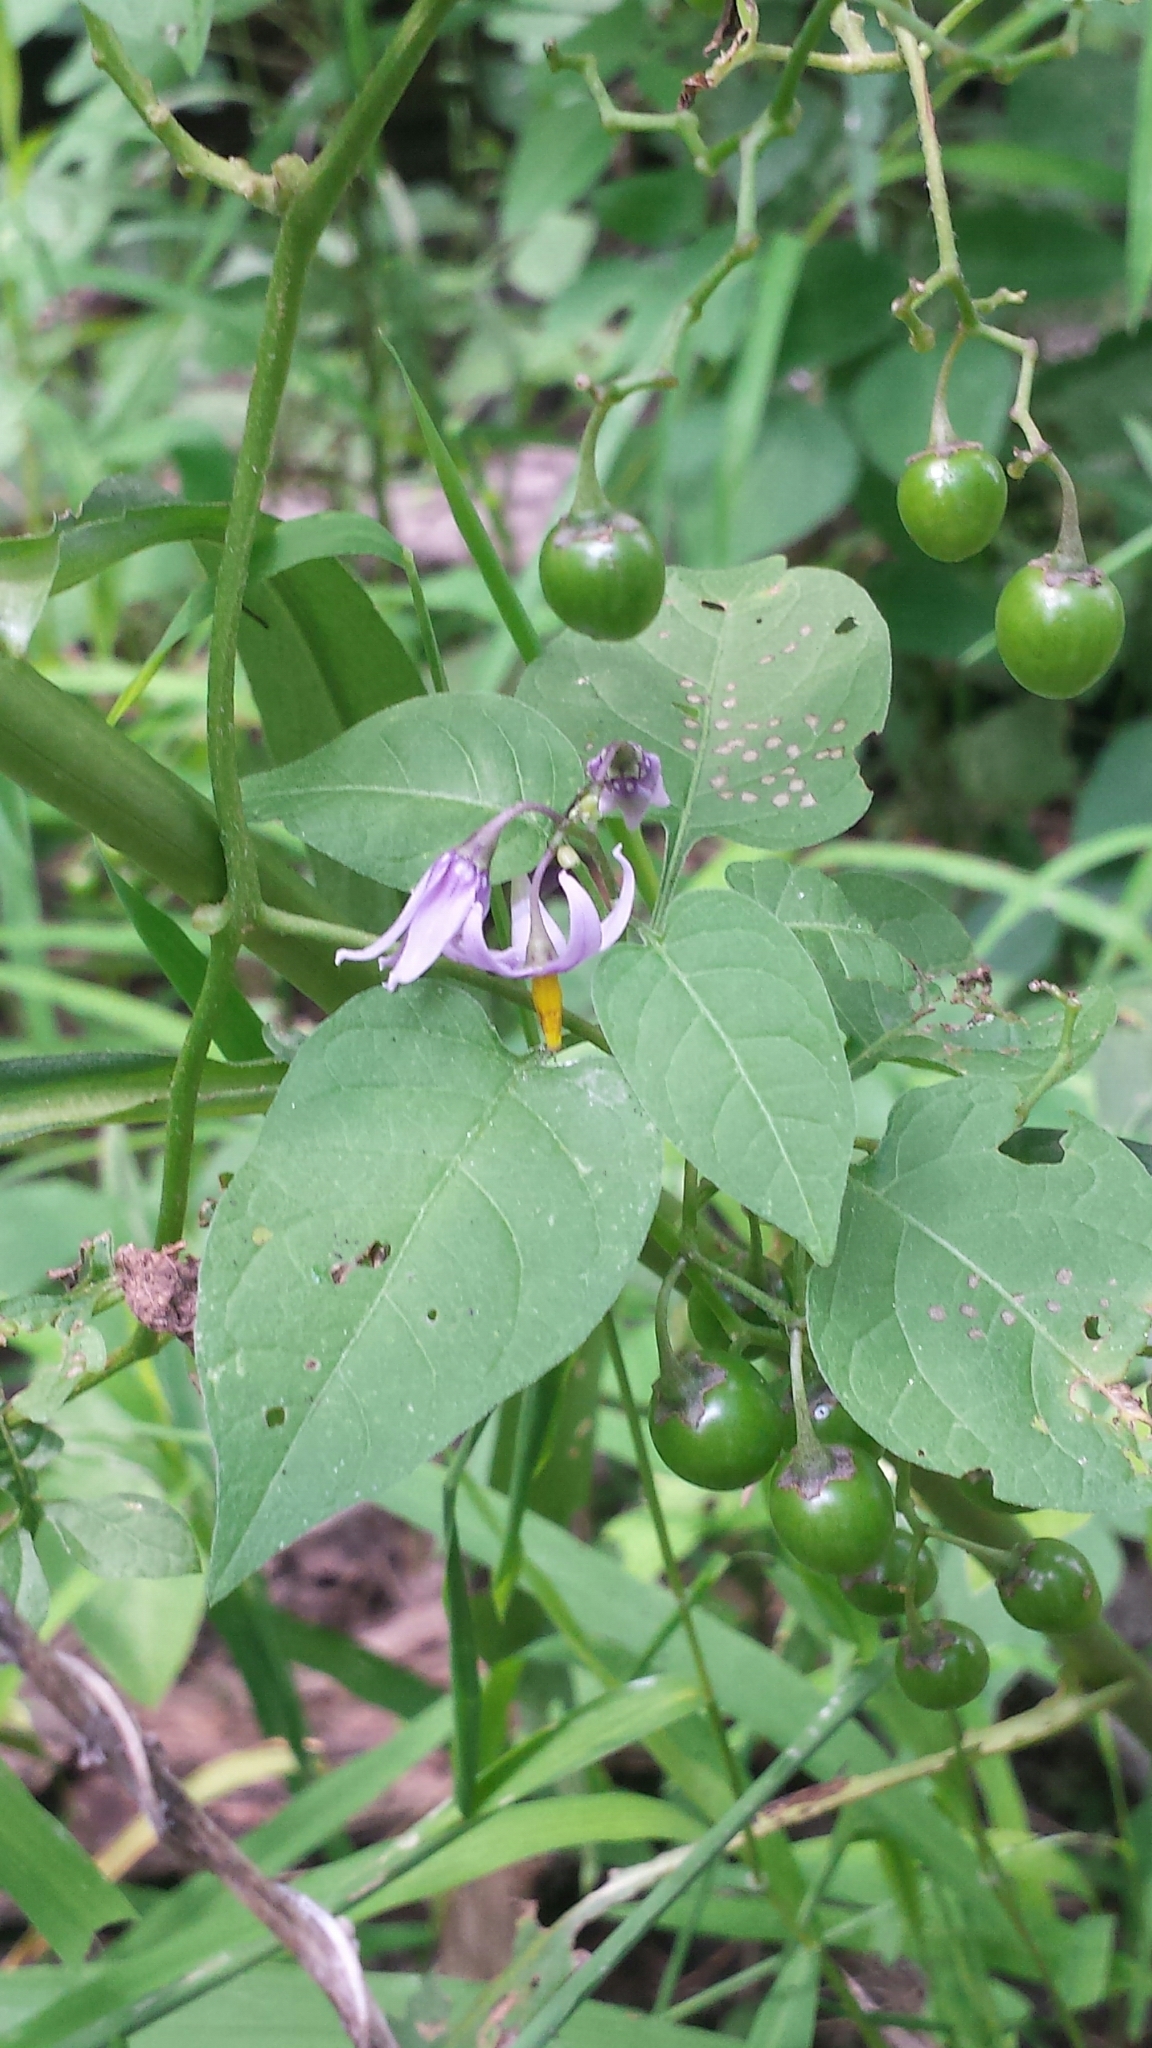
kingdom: Plantae
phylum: Tracheophyta
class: Magnoliopsida
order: Solanales
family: Solanaceae
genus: Solanum
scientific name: Solanum dulcamara
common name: Climbing nightshade
